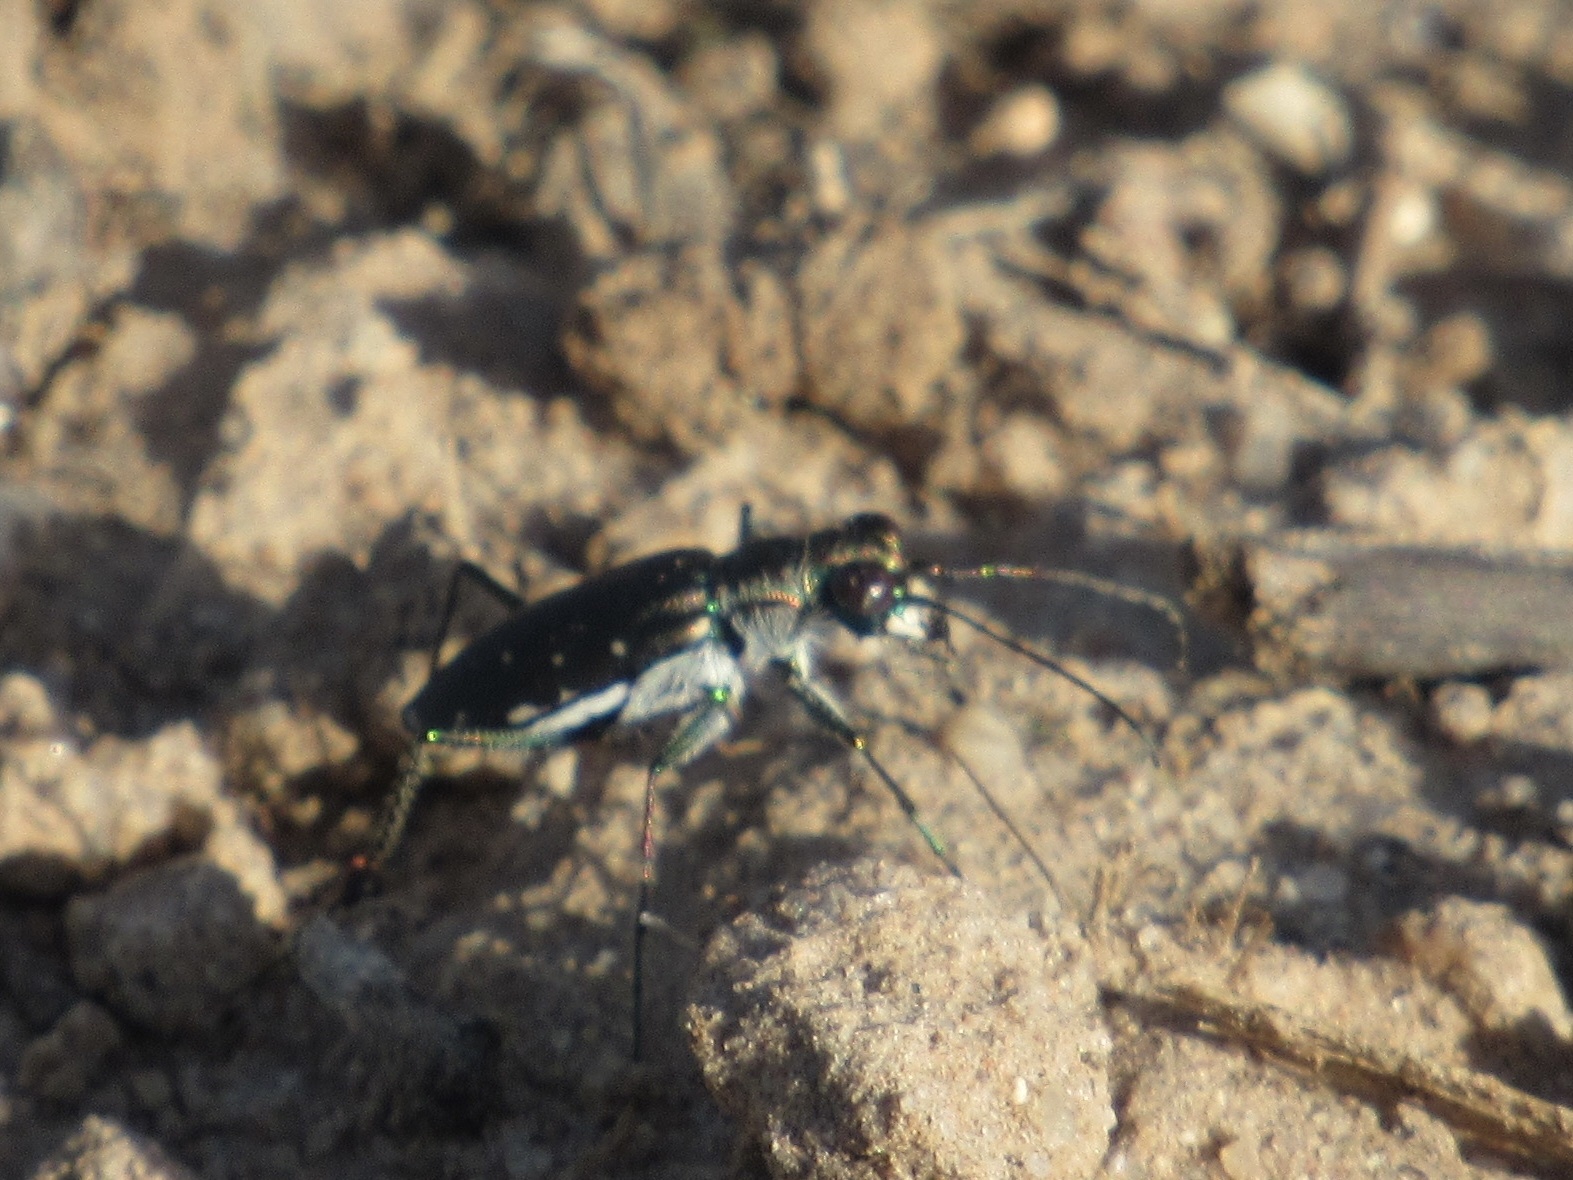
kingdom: Animalia
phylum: Arthropoda
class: Insecta
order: Coleoptera
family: Carabidae
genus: Cicindela
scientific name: Cicindela punctulata
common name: Punctured tiger beetle
